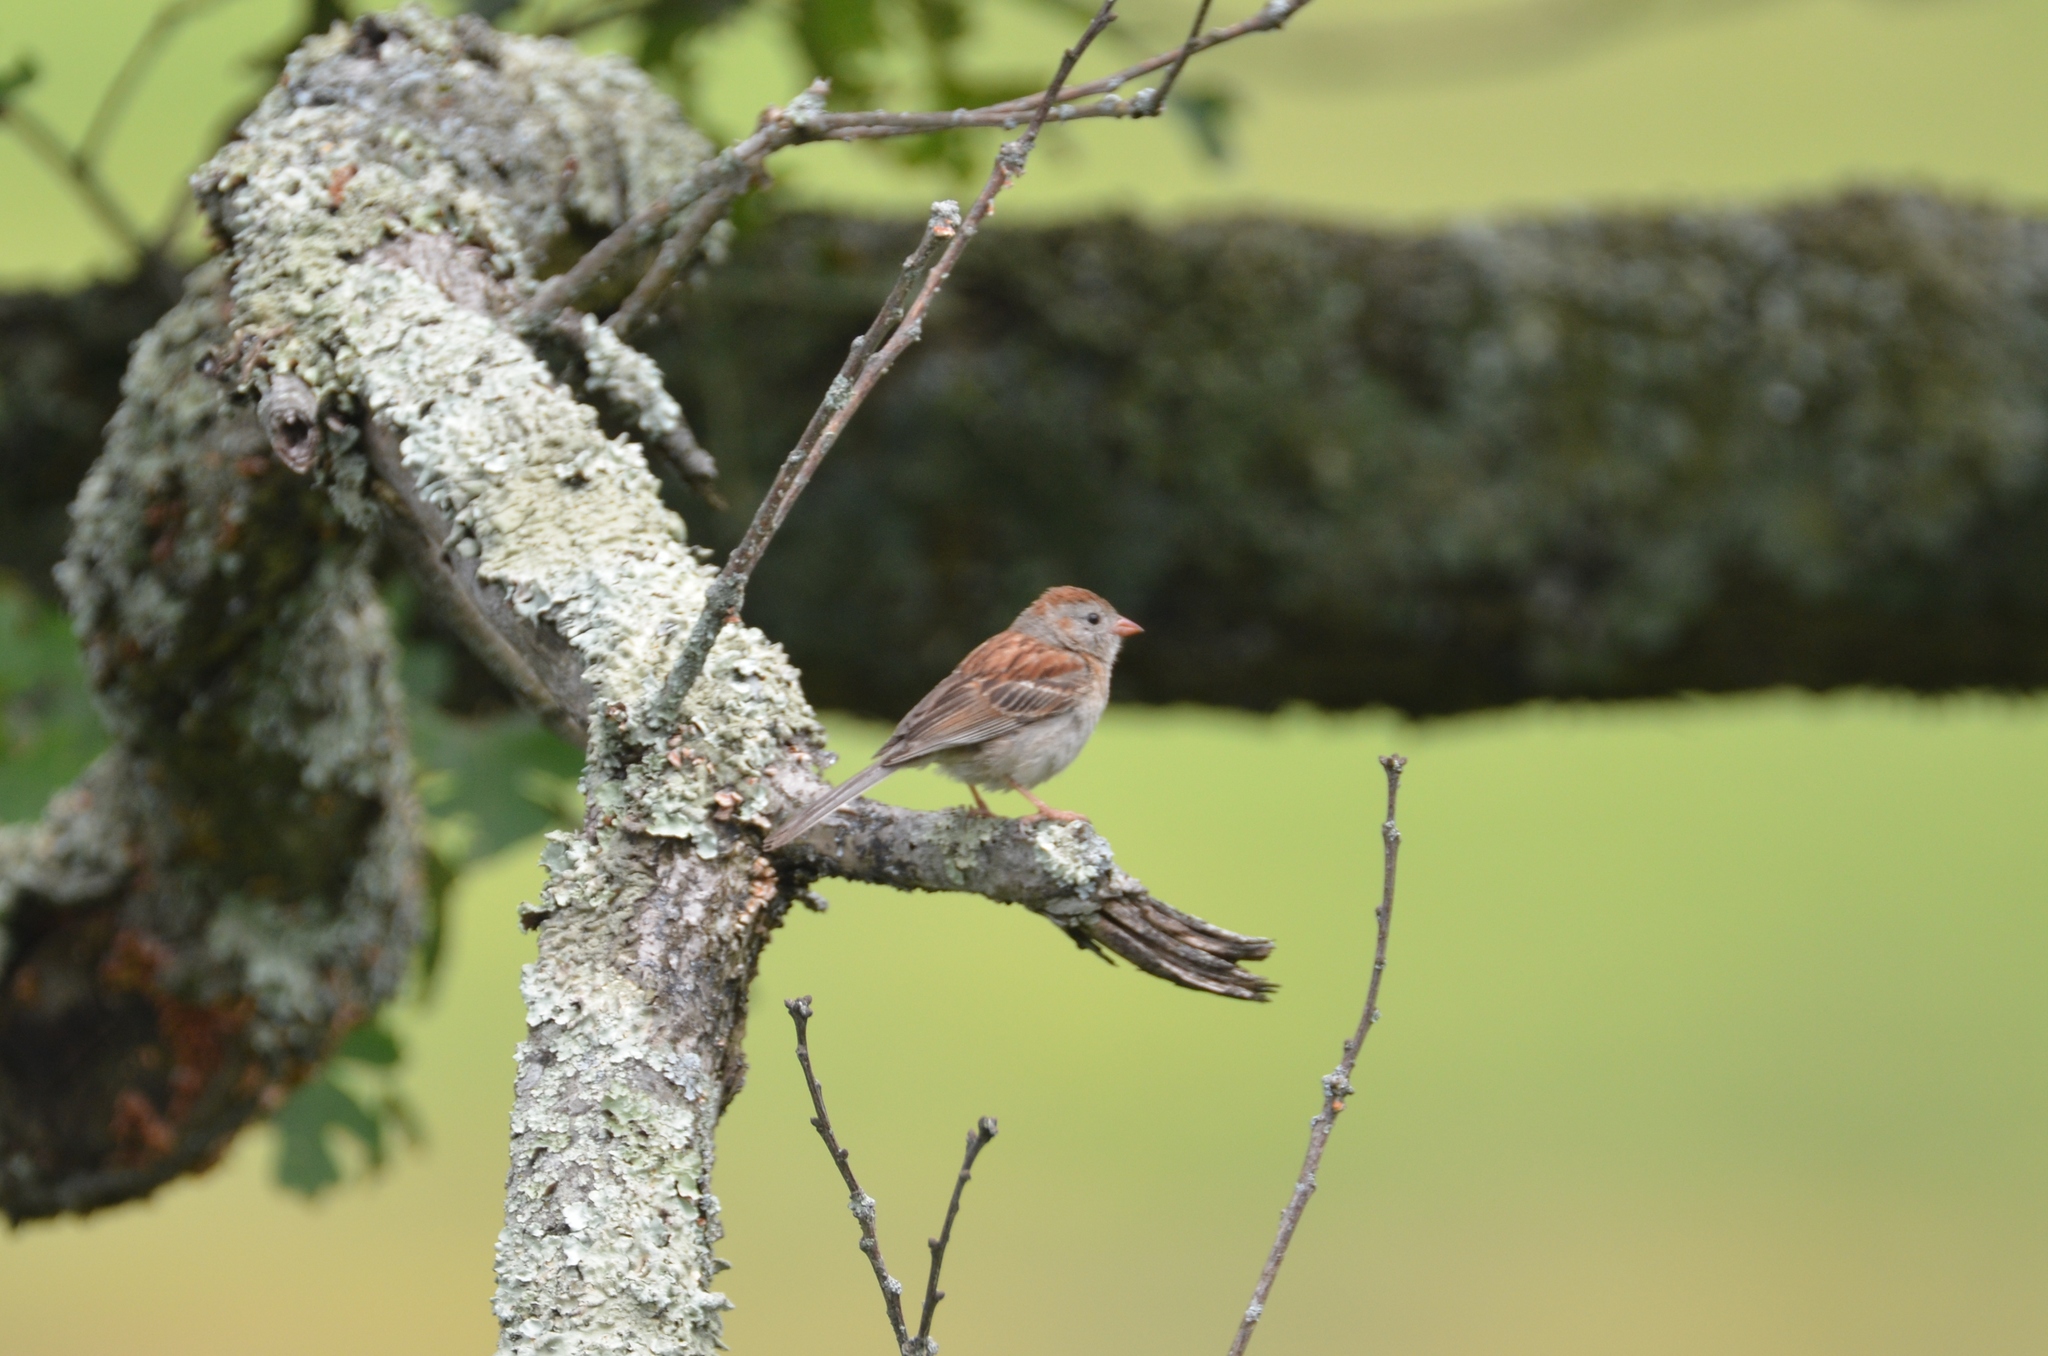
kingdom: Animalia
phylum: Chordata
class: Aves
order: Passeriformes
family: Passerellidae
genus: Spizella
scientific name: Spizella pusilla
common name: Field sparrow
